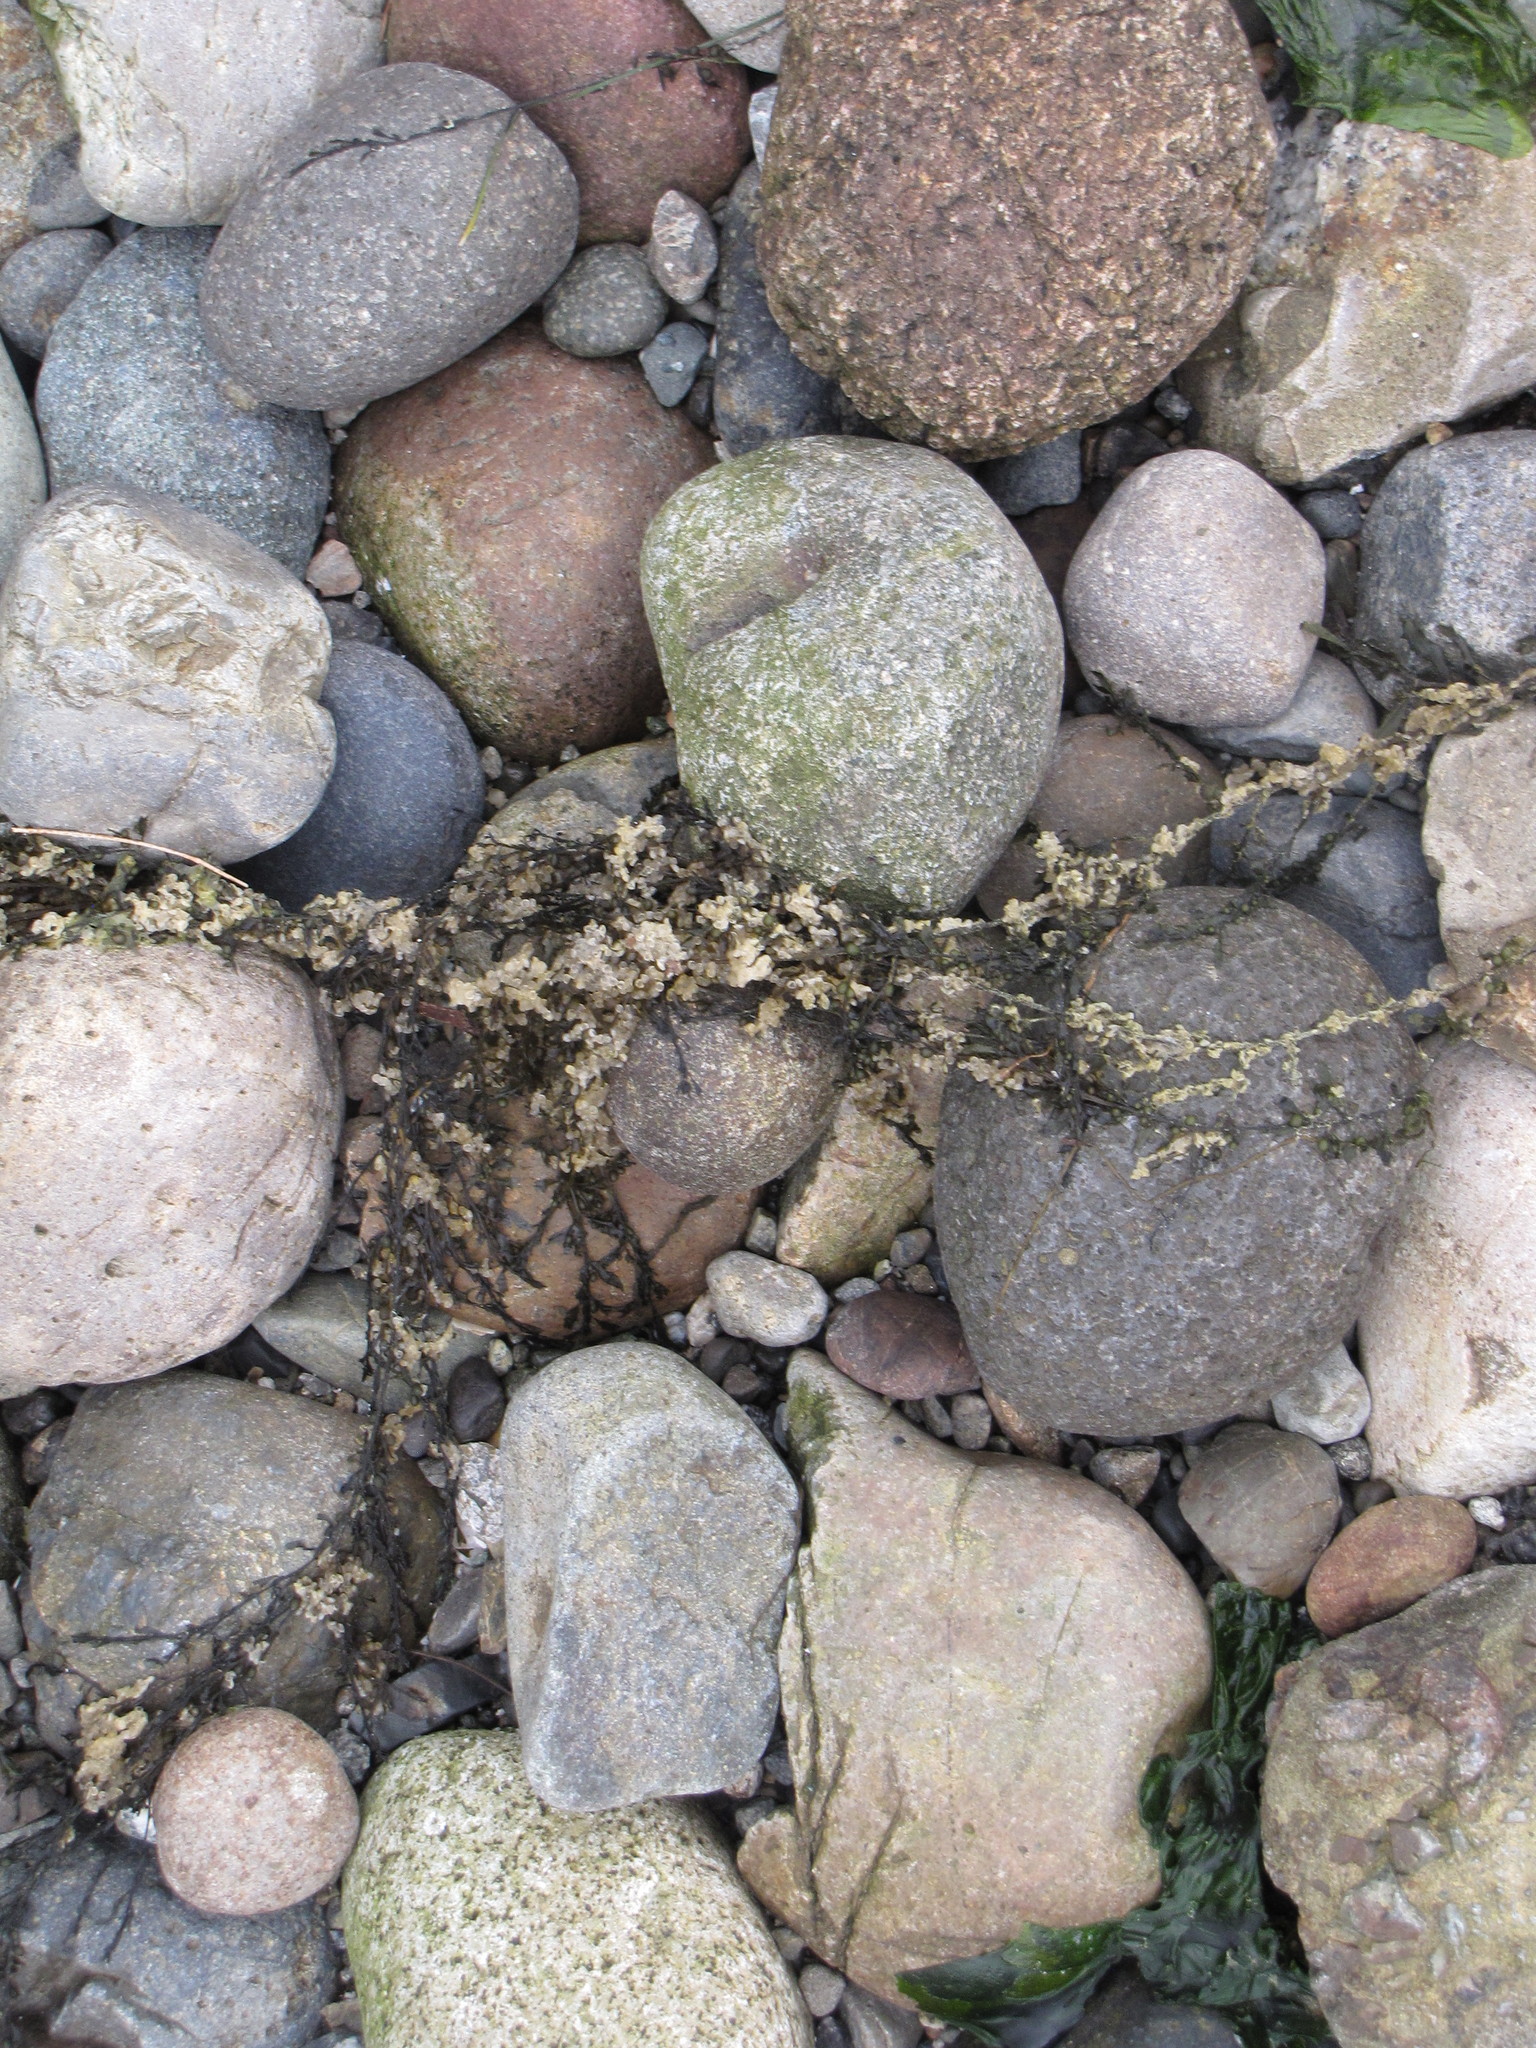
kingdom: Chromista
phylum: Ochrophyta
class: Phaeophyceae
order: Fucales
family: Sargassaceae
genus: Sargassum
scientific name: Sargassum muticum
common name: Japweed
